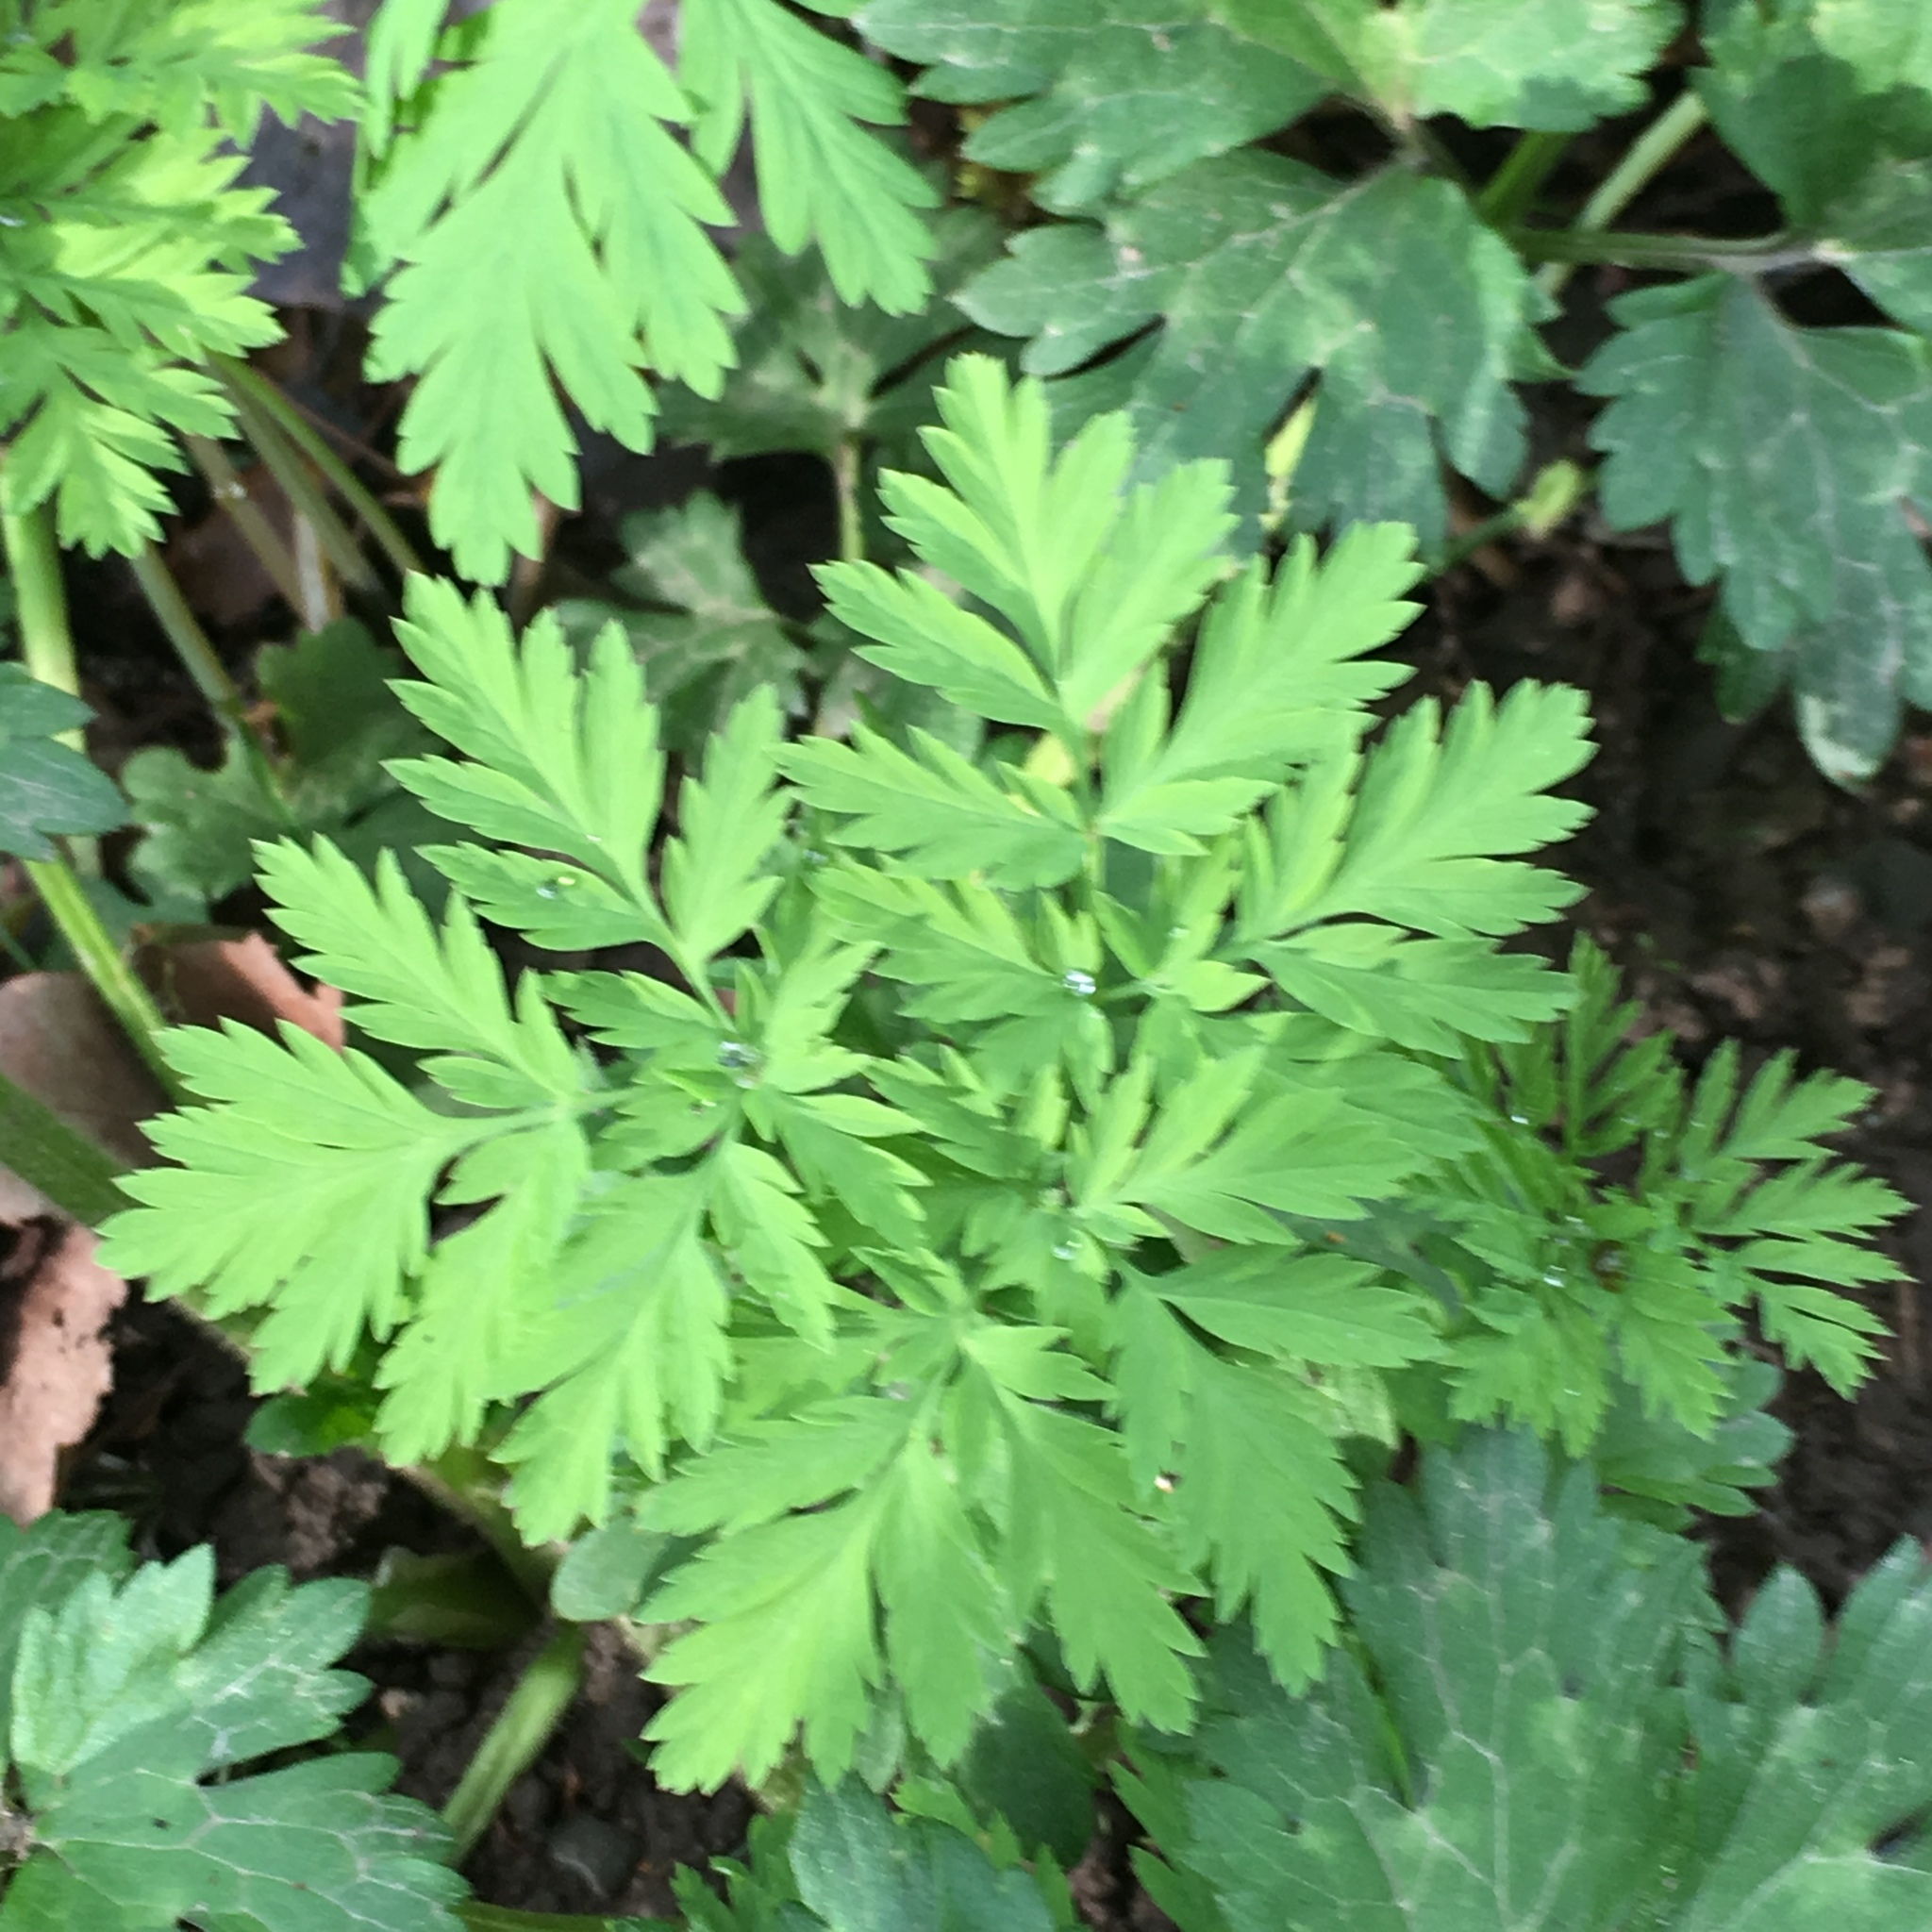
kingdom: Plantae
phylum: Tracheophyta
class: Magnoliopsida
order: Ranunculales
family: Papaveraceae
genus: Dicentra
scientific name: Dicentra formosa
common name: Bleeding-heart
